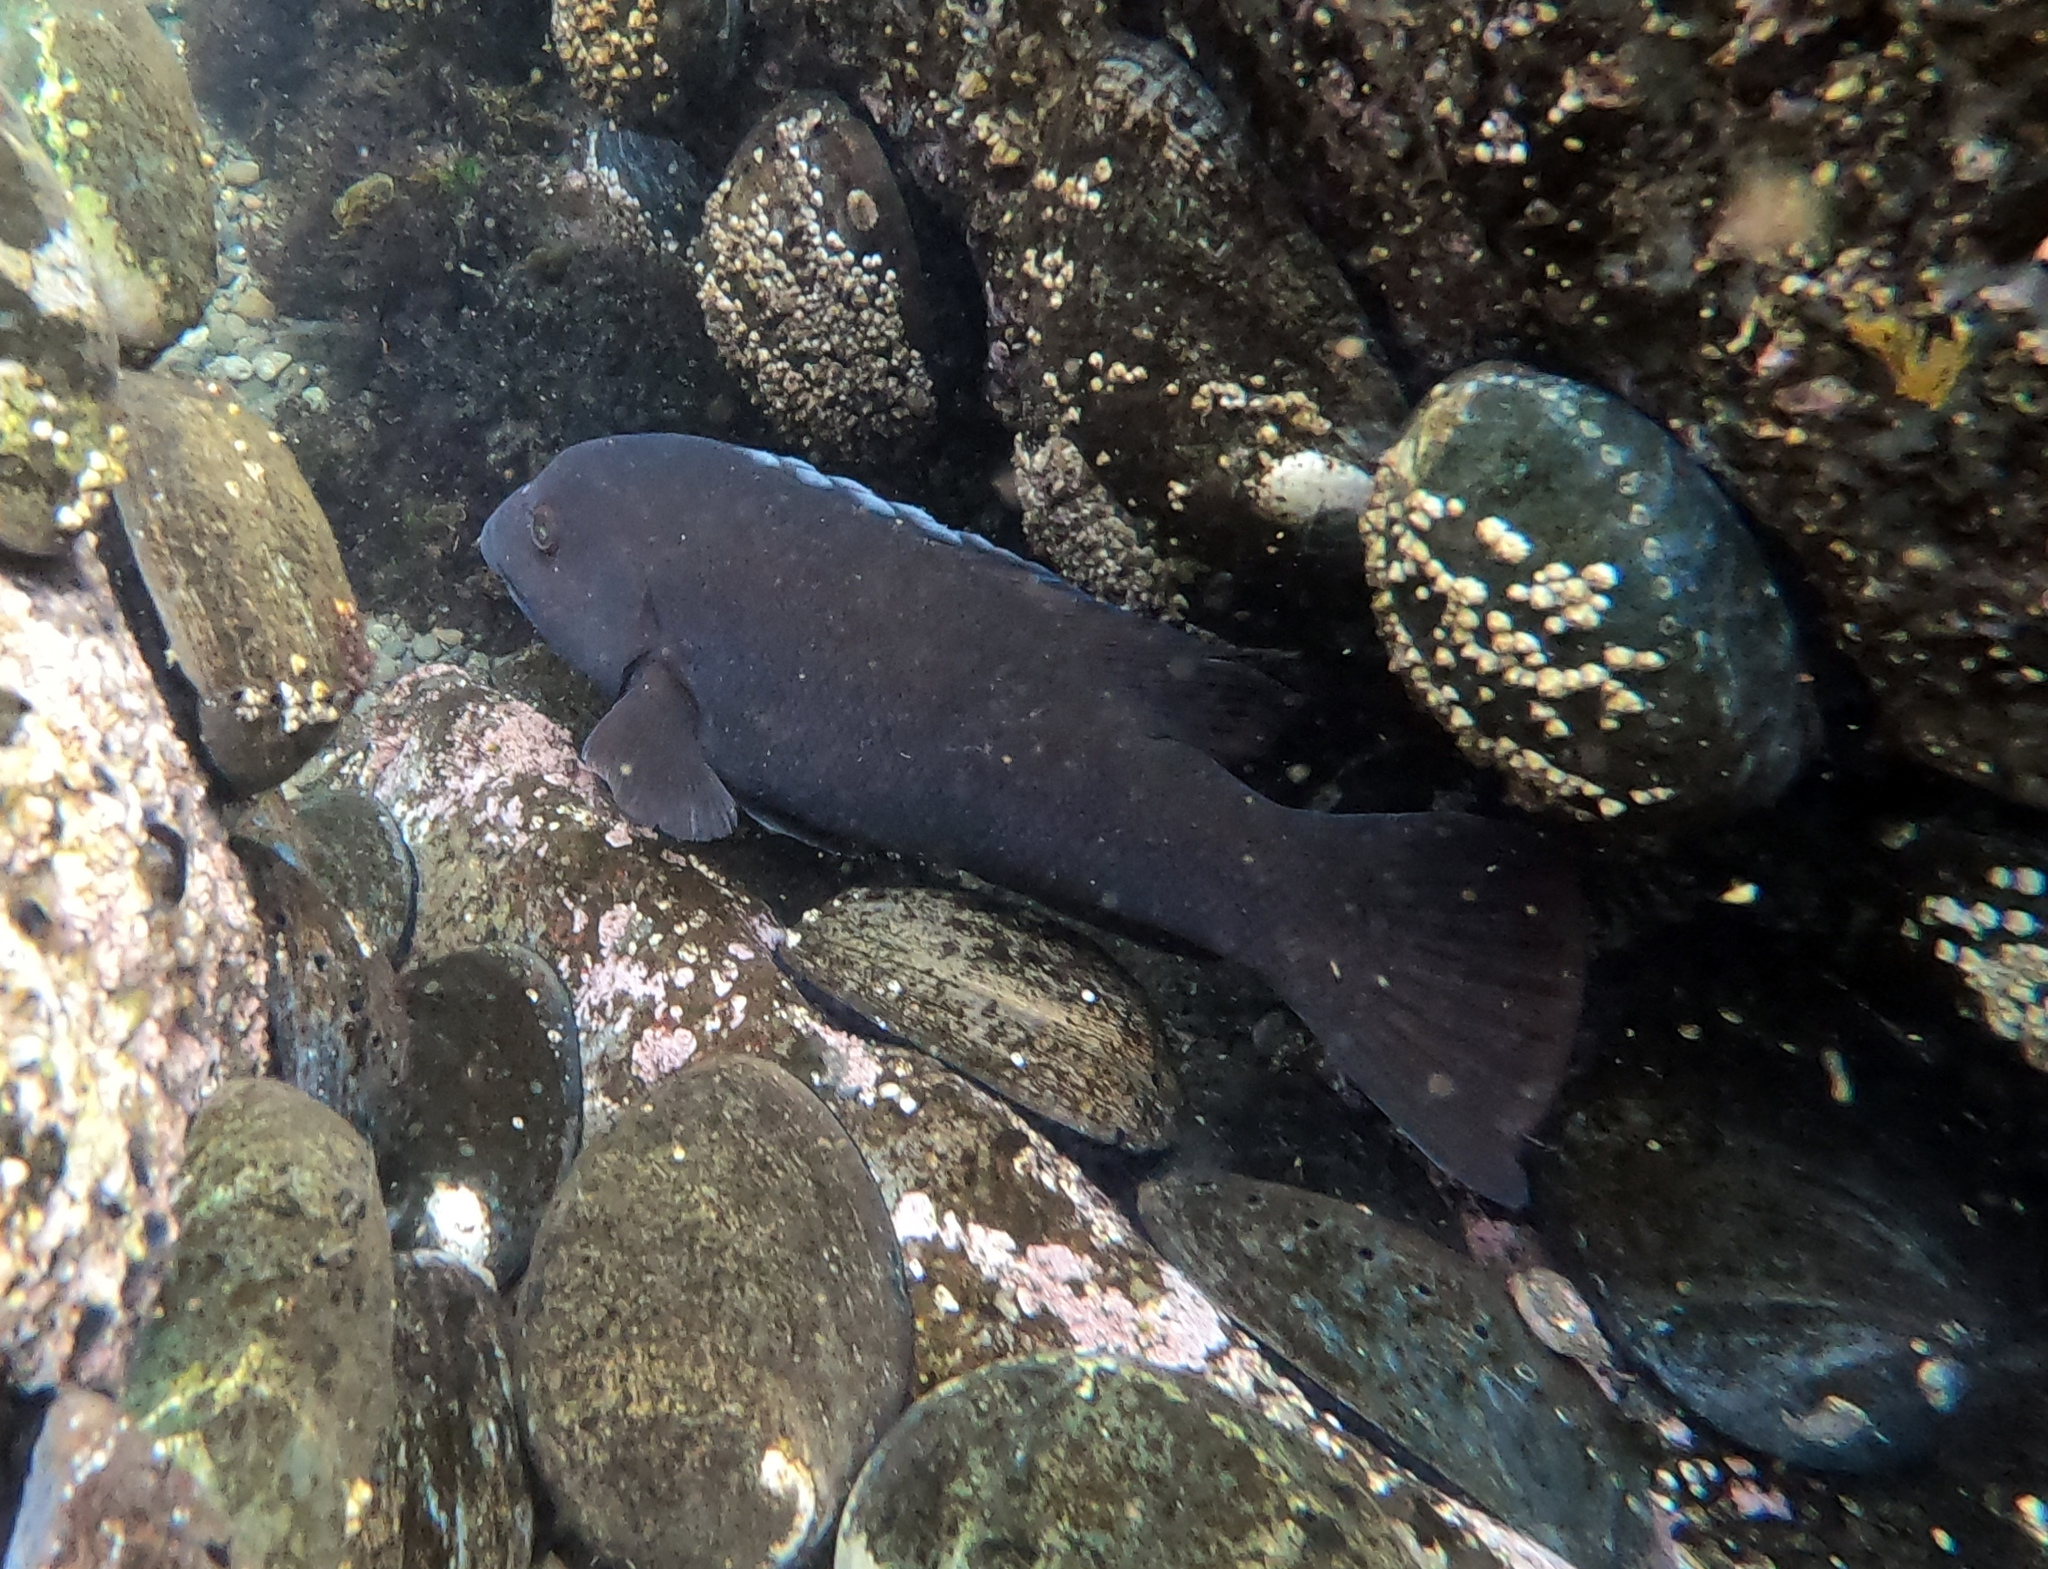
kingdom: Animalia
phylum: Chordata
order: Perciformes
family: Labridae
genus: Semicossyphus
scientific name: Semicossyphus pulcher
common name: California sheephead
